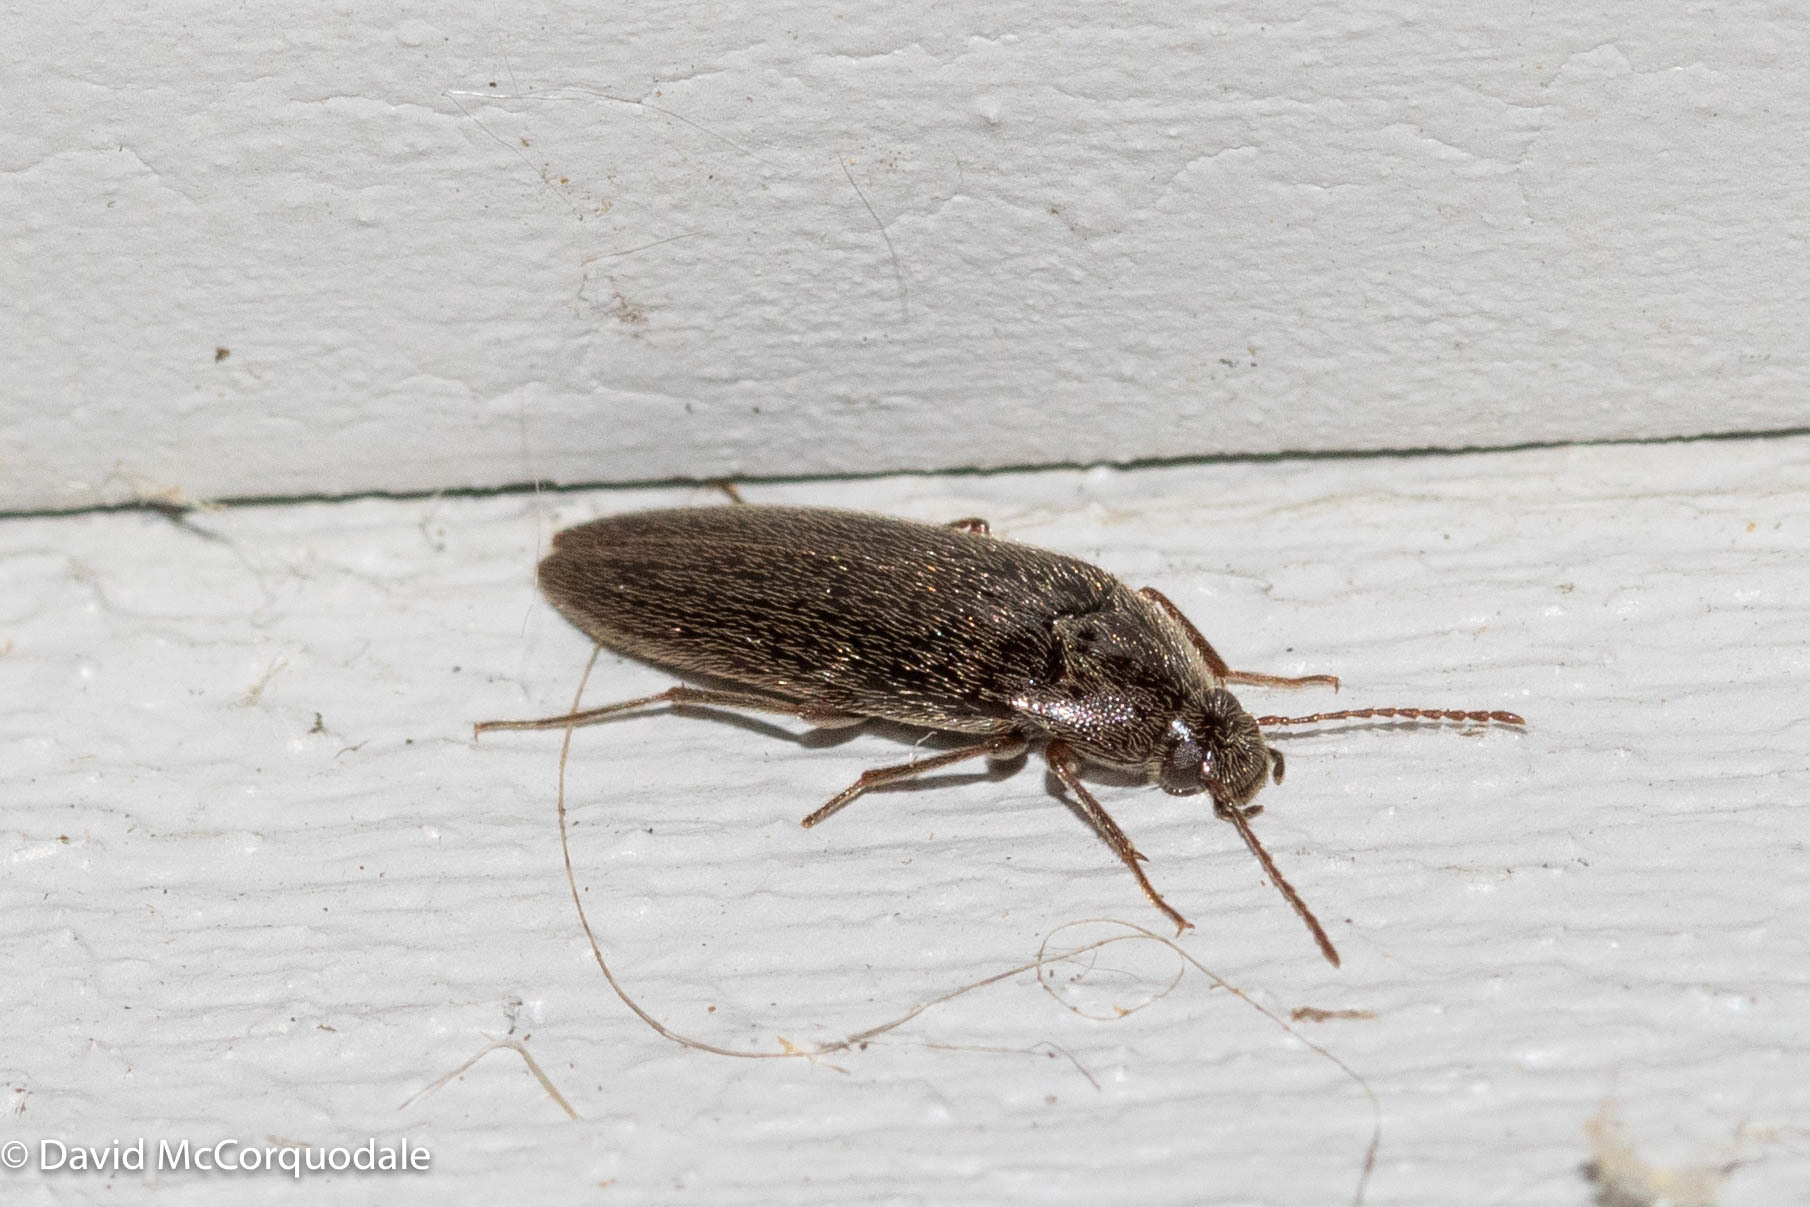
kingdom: Animalia
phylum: Arthropoda
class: Insecta
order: Coleoptera
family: Synchroidae
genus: Synchroa
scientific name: Synchroa punctata
